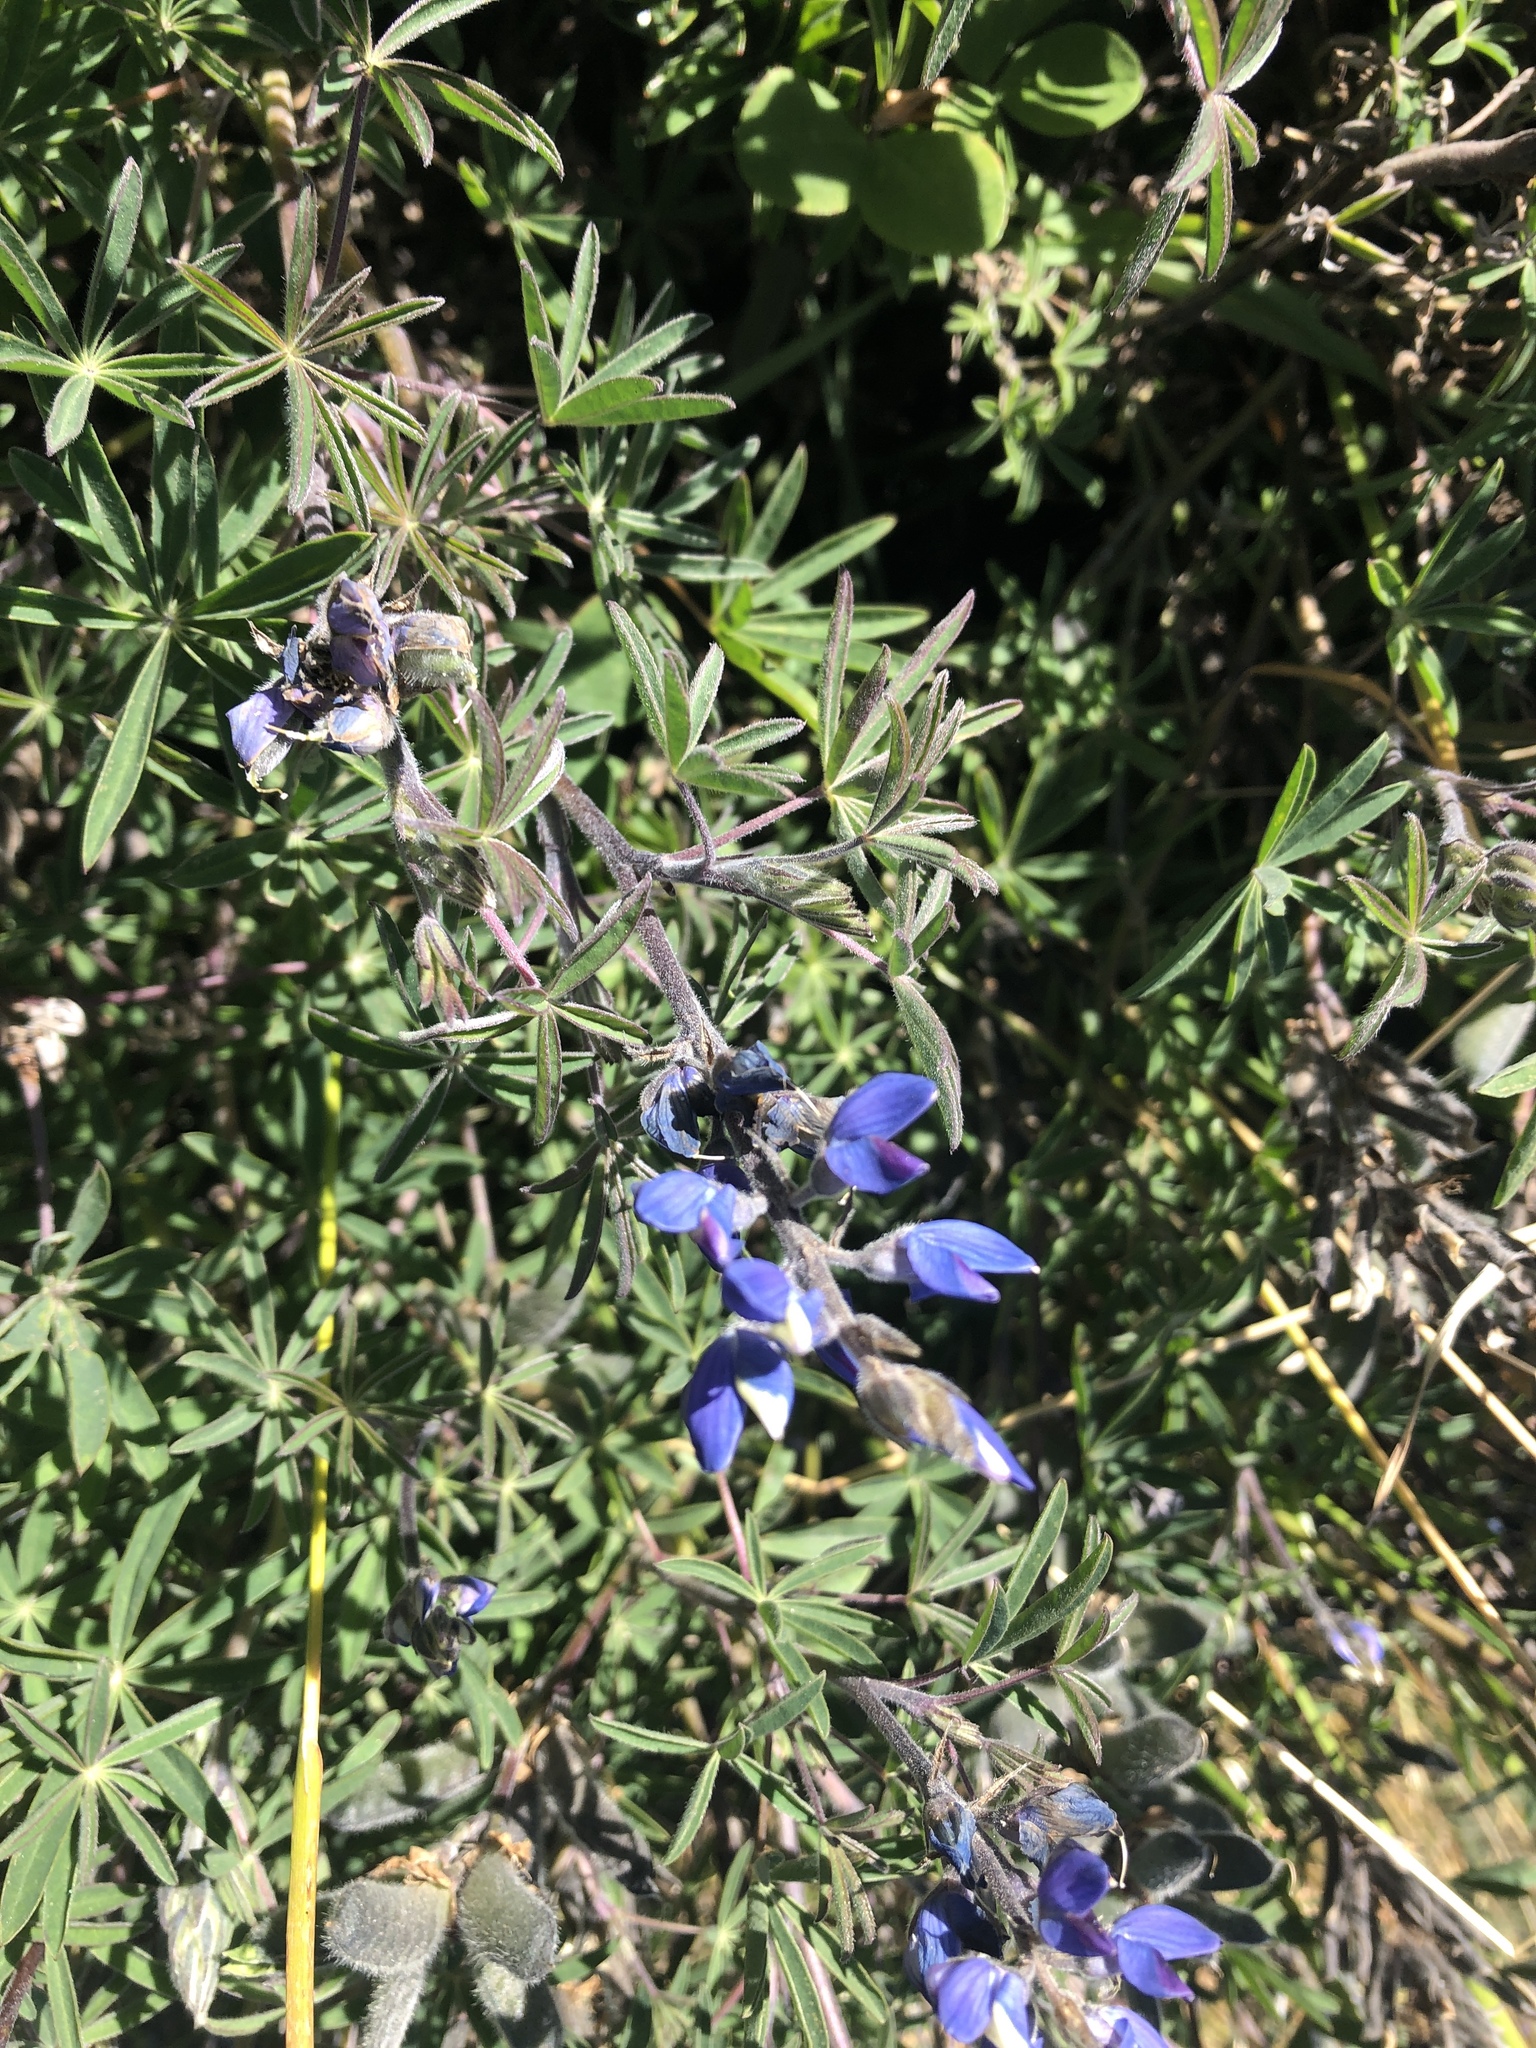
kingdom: Plantae
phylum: Tracheophyta
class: Magnoliopsida
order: Fabales
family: Fabaceae
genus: Lupinus
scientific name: Lupinus costaricensis
